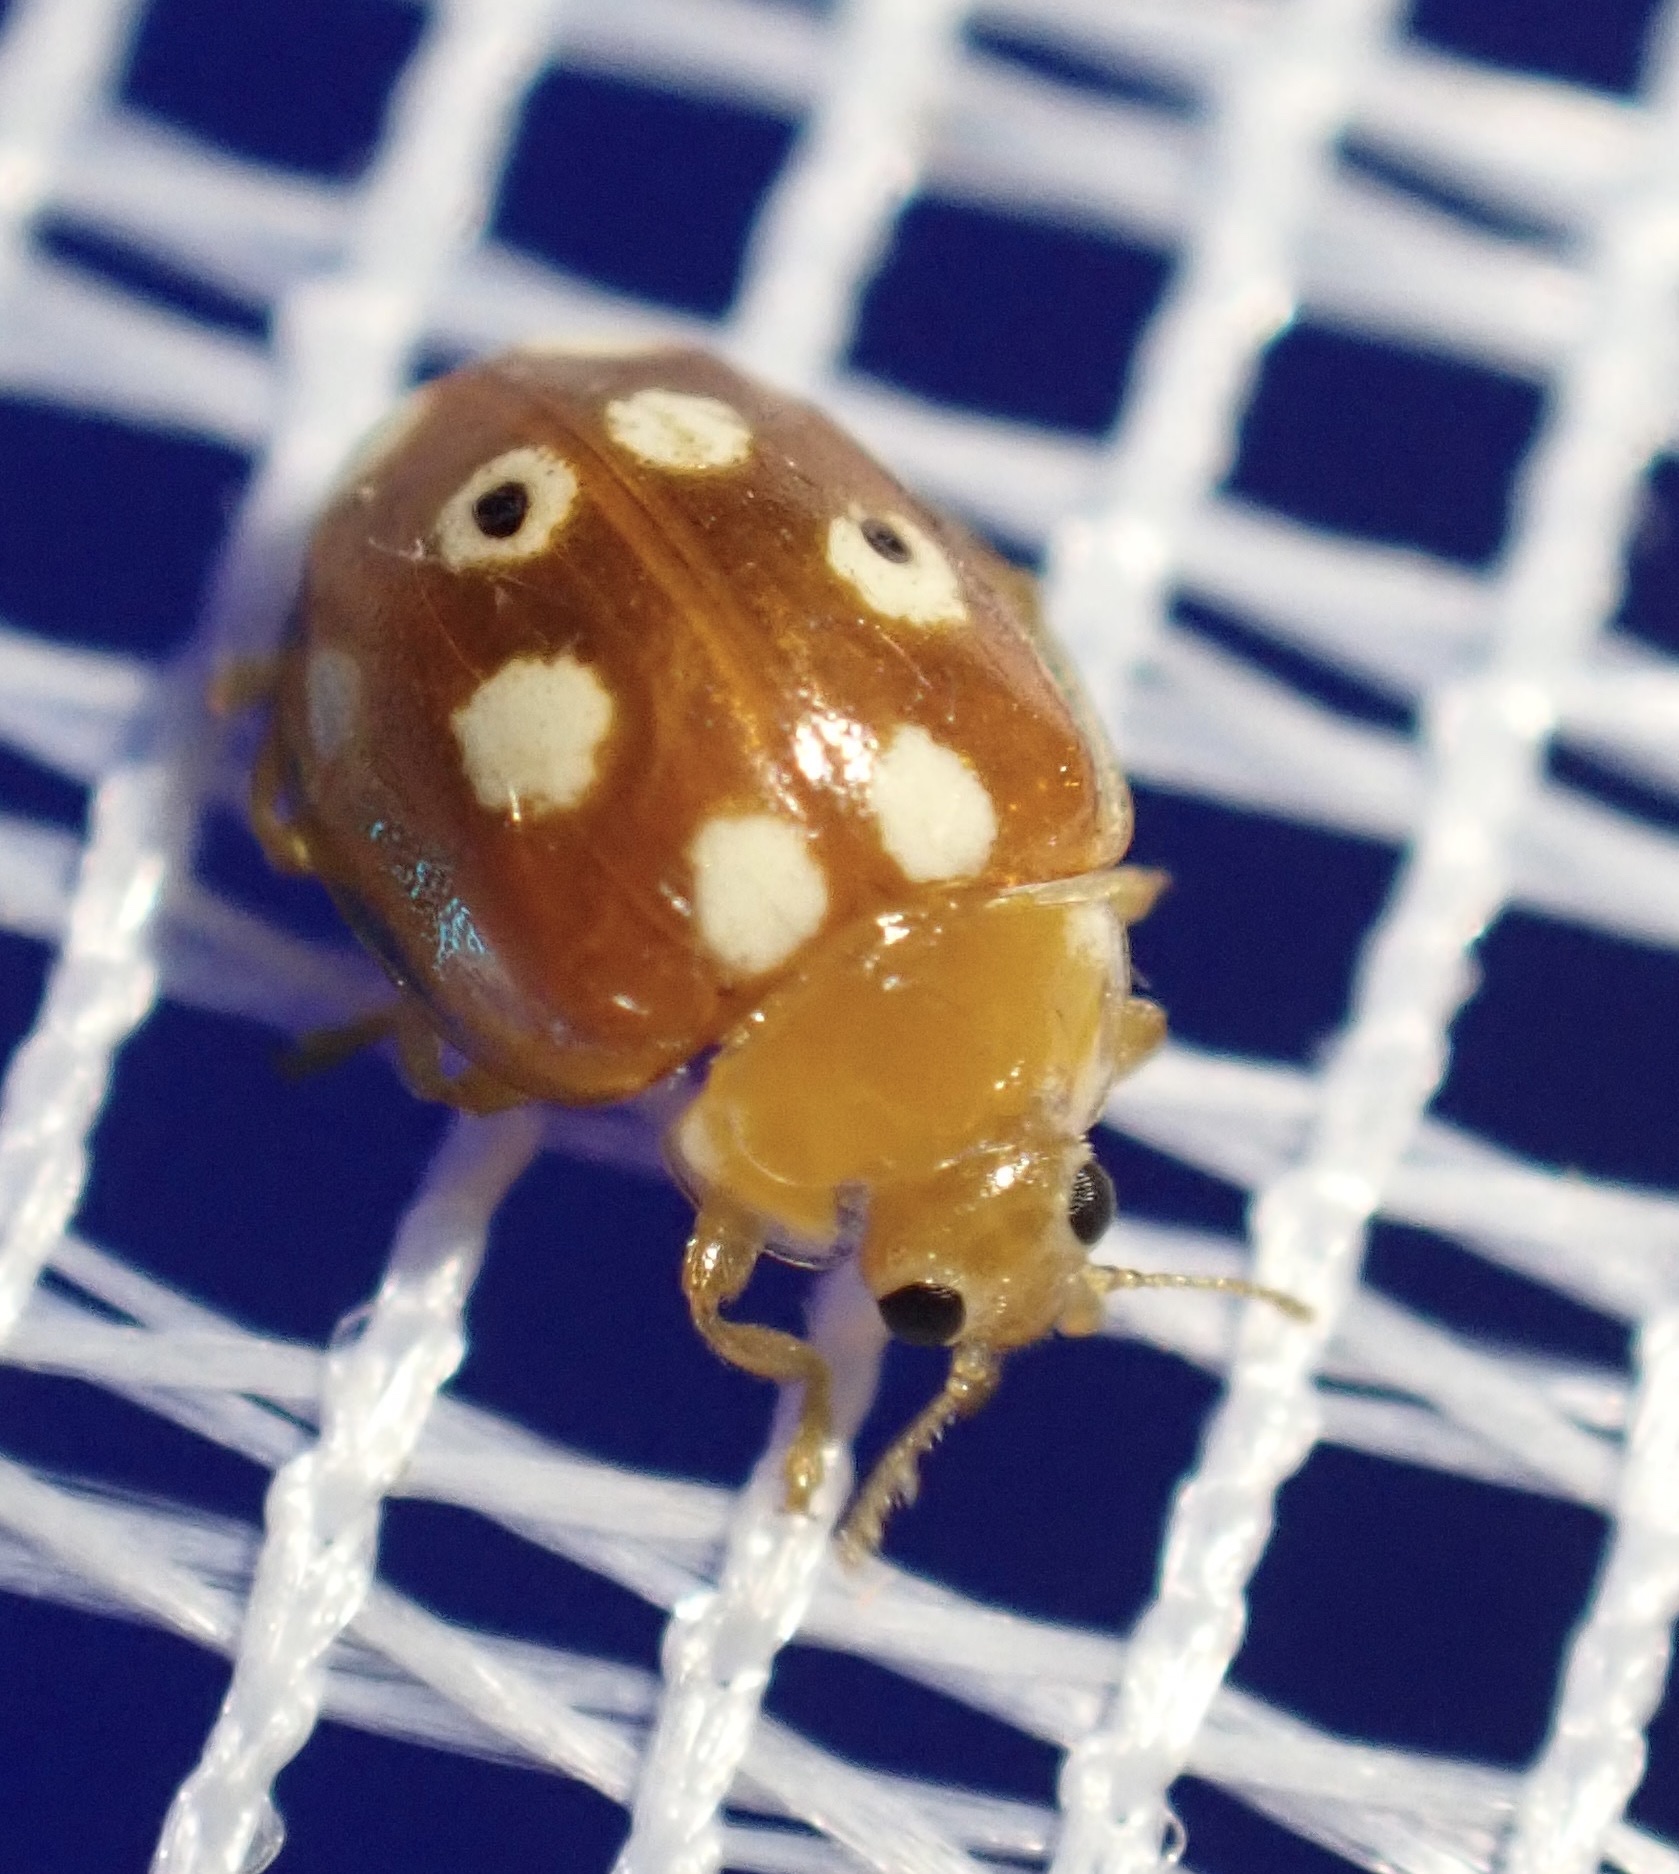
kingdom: Animalia
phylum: Arthropoda
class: Insecta
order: Coleoptera
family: Coccinellidae
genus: Vibidia
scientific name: Vibidia duodecimguttata
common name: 12-spot ladybird
